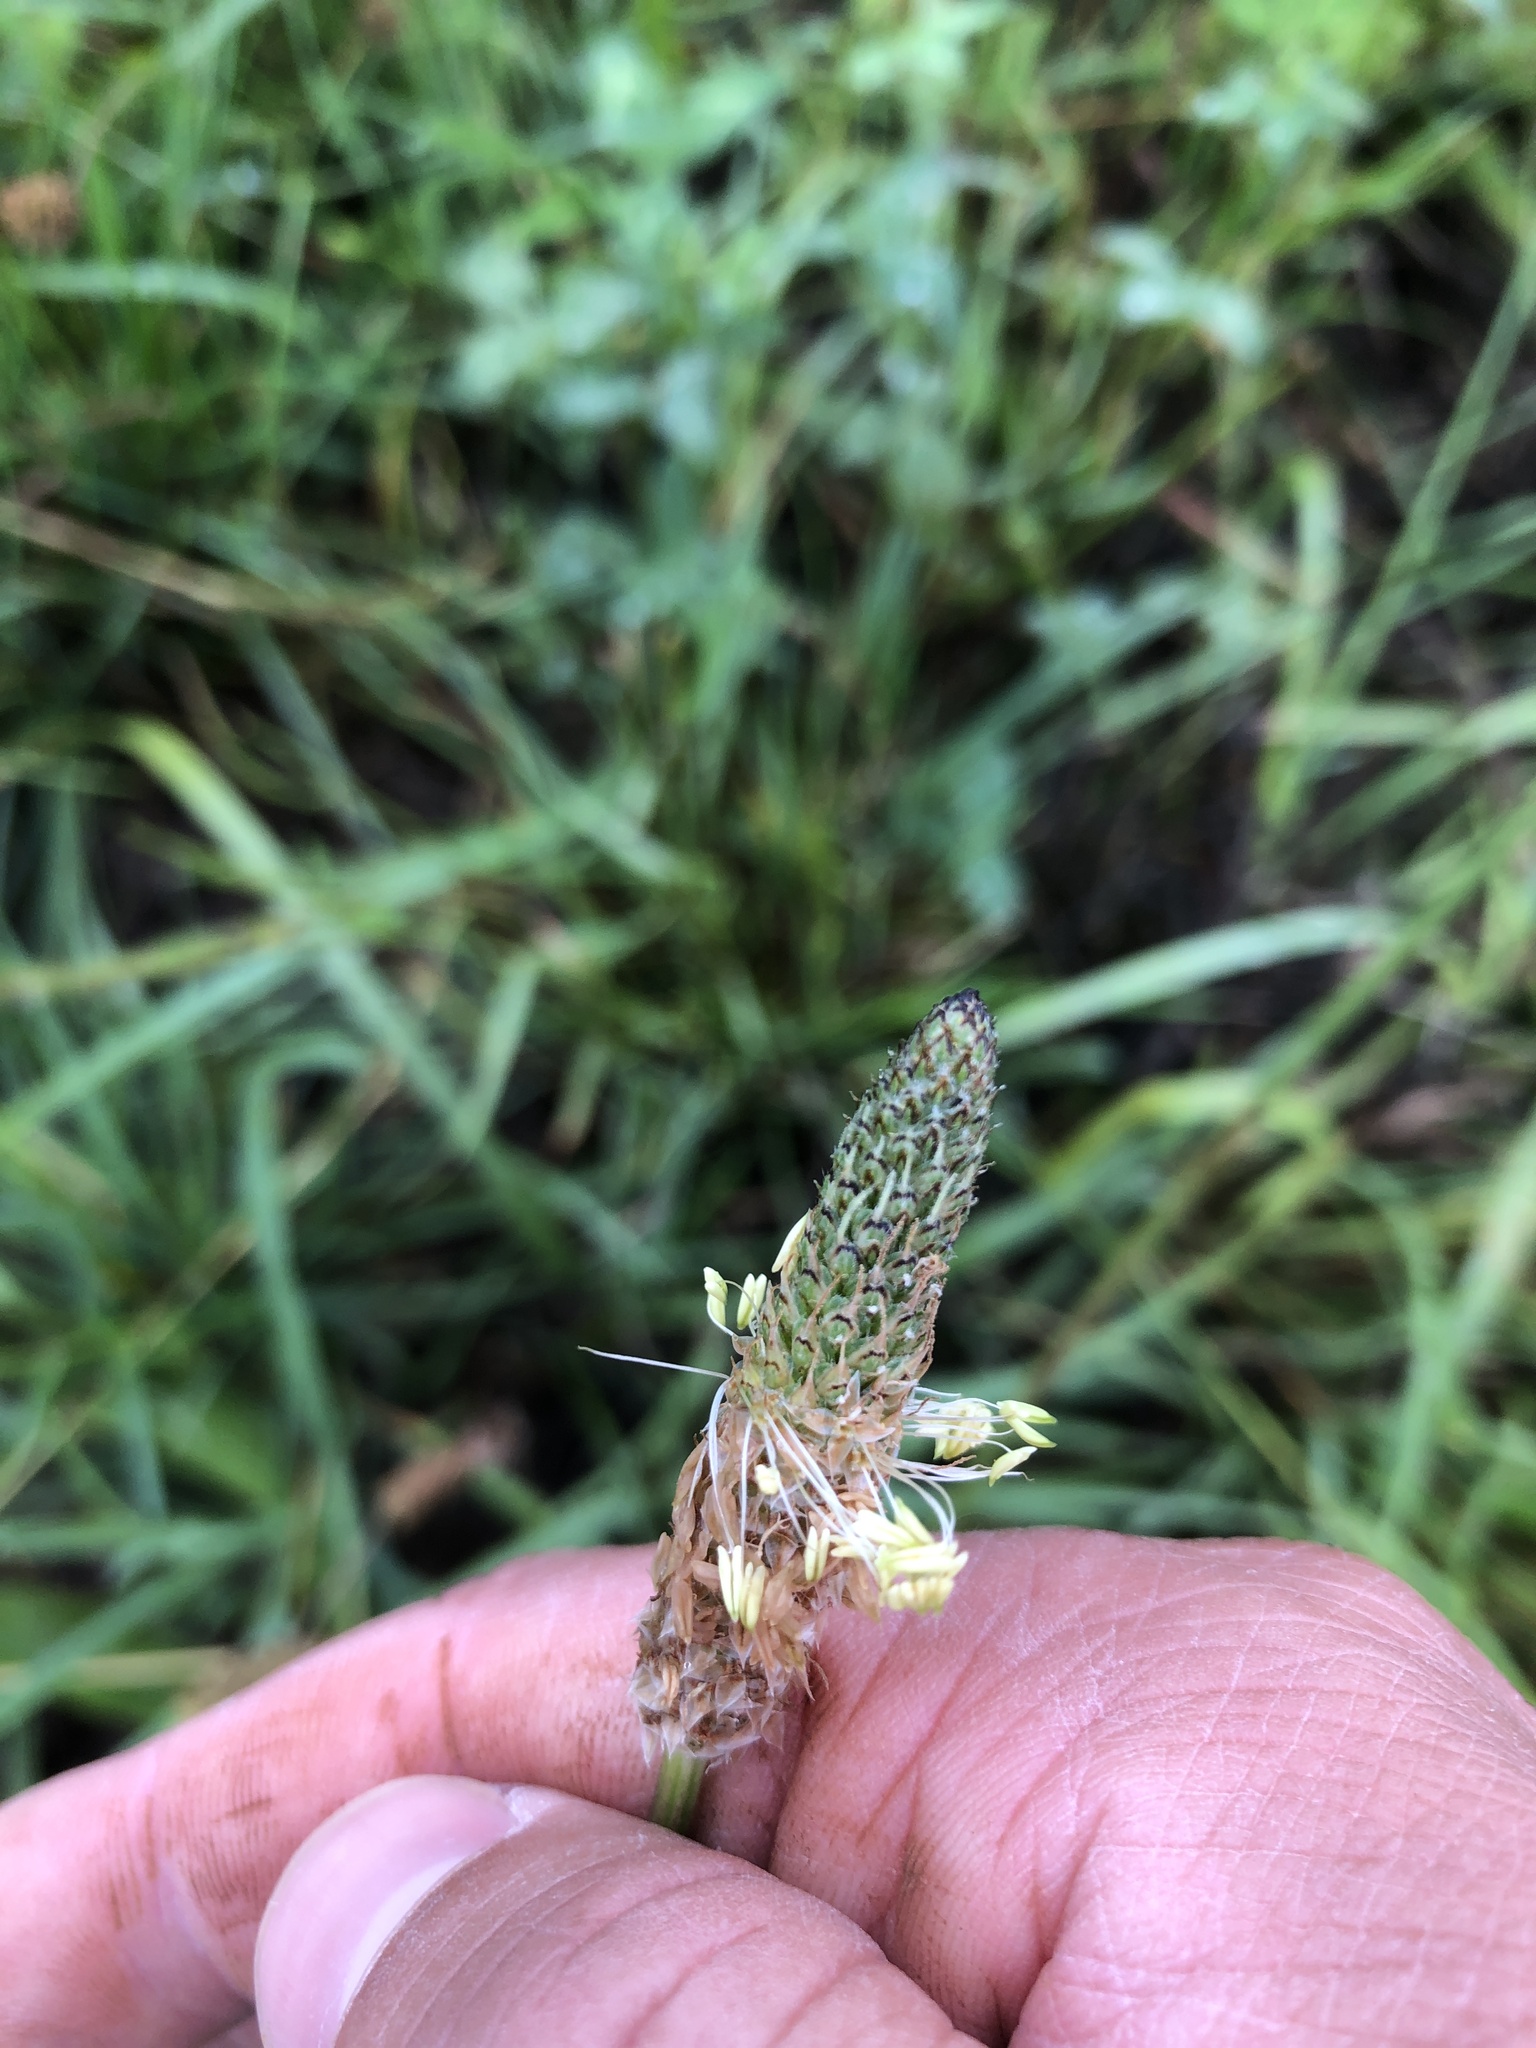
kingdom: Plantae
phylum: Tracheophyta
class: Magnoliopsida
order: Lamiales
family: Plantaginaceae
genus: Plantago
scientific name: Plantago lanceolata
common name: Ribwort plantain
